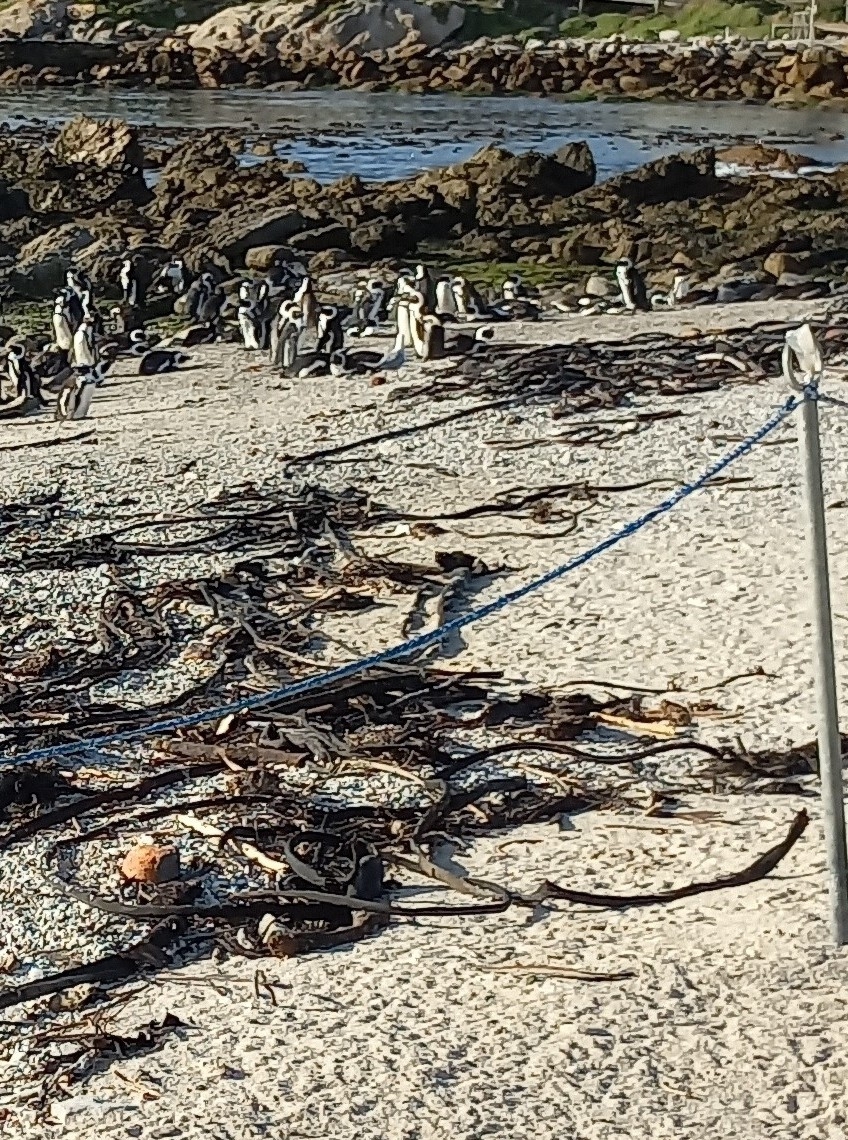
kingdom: Animalia
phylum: Chordata
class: Aves
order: Sphenisciformes
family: Spheniscidae
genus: Spheniscus
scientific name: Spheniscus demersus
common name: African penguin
